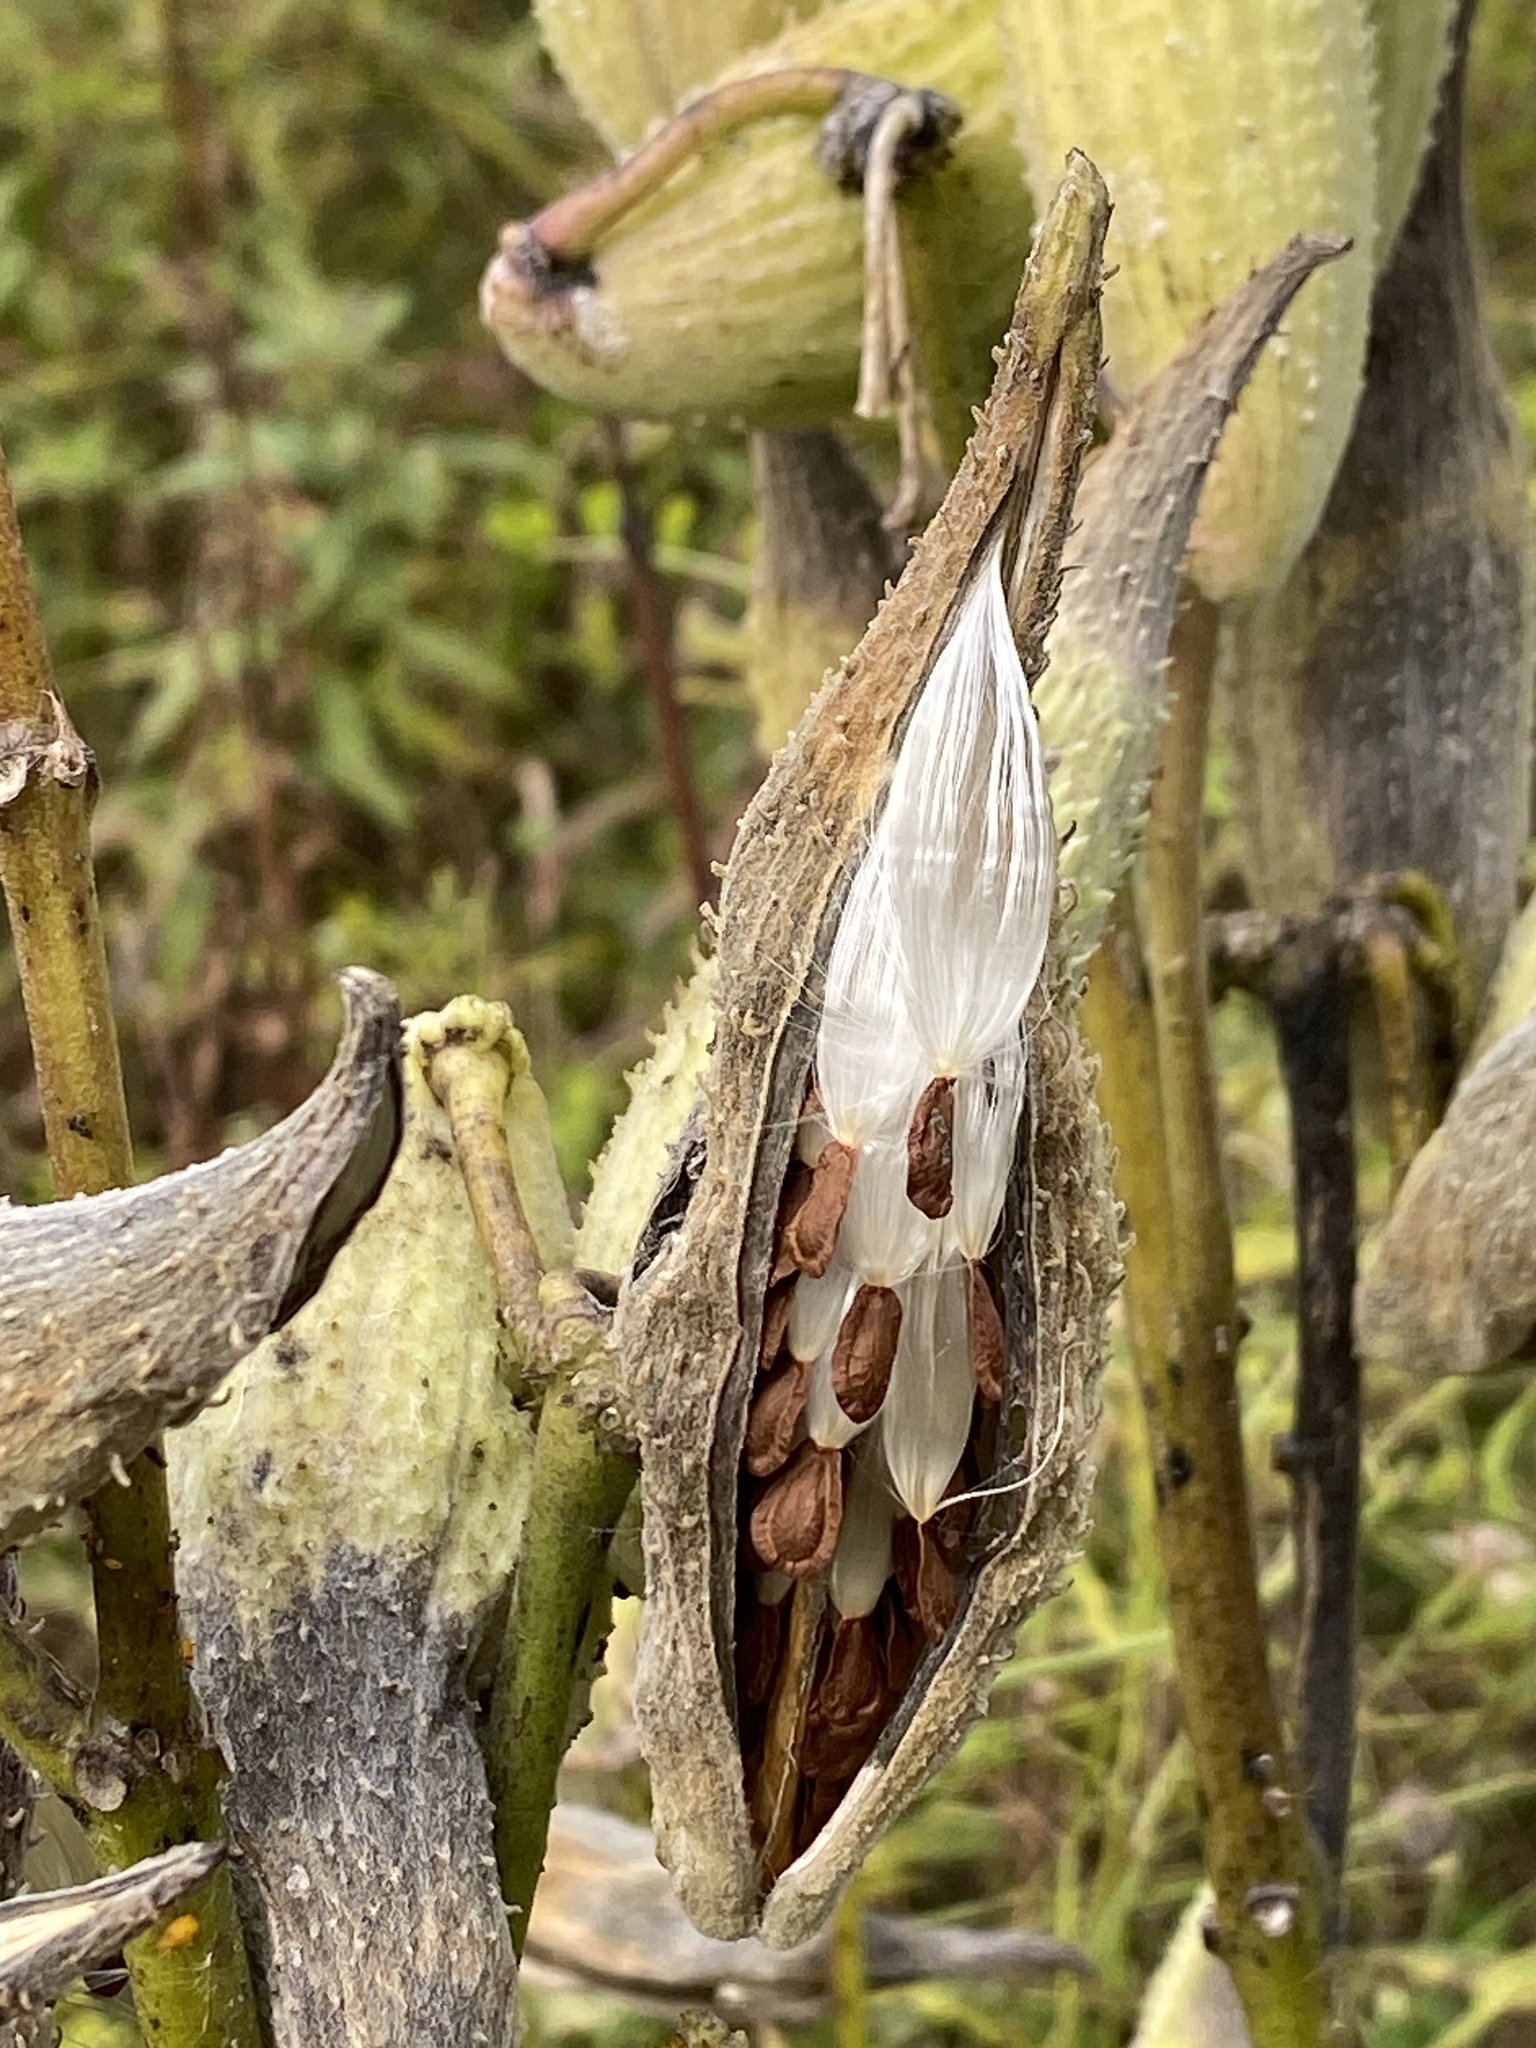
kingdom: Plantae
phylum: Tracheophyta
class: Magnoliopsida
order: Gentianales
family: Apocynaceae
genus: Asclepias
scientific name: Asclepias syriaca
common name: Common milkweed
